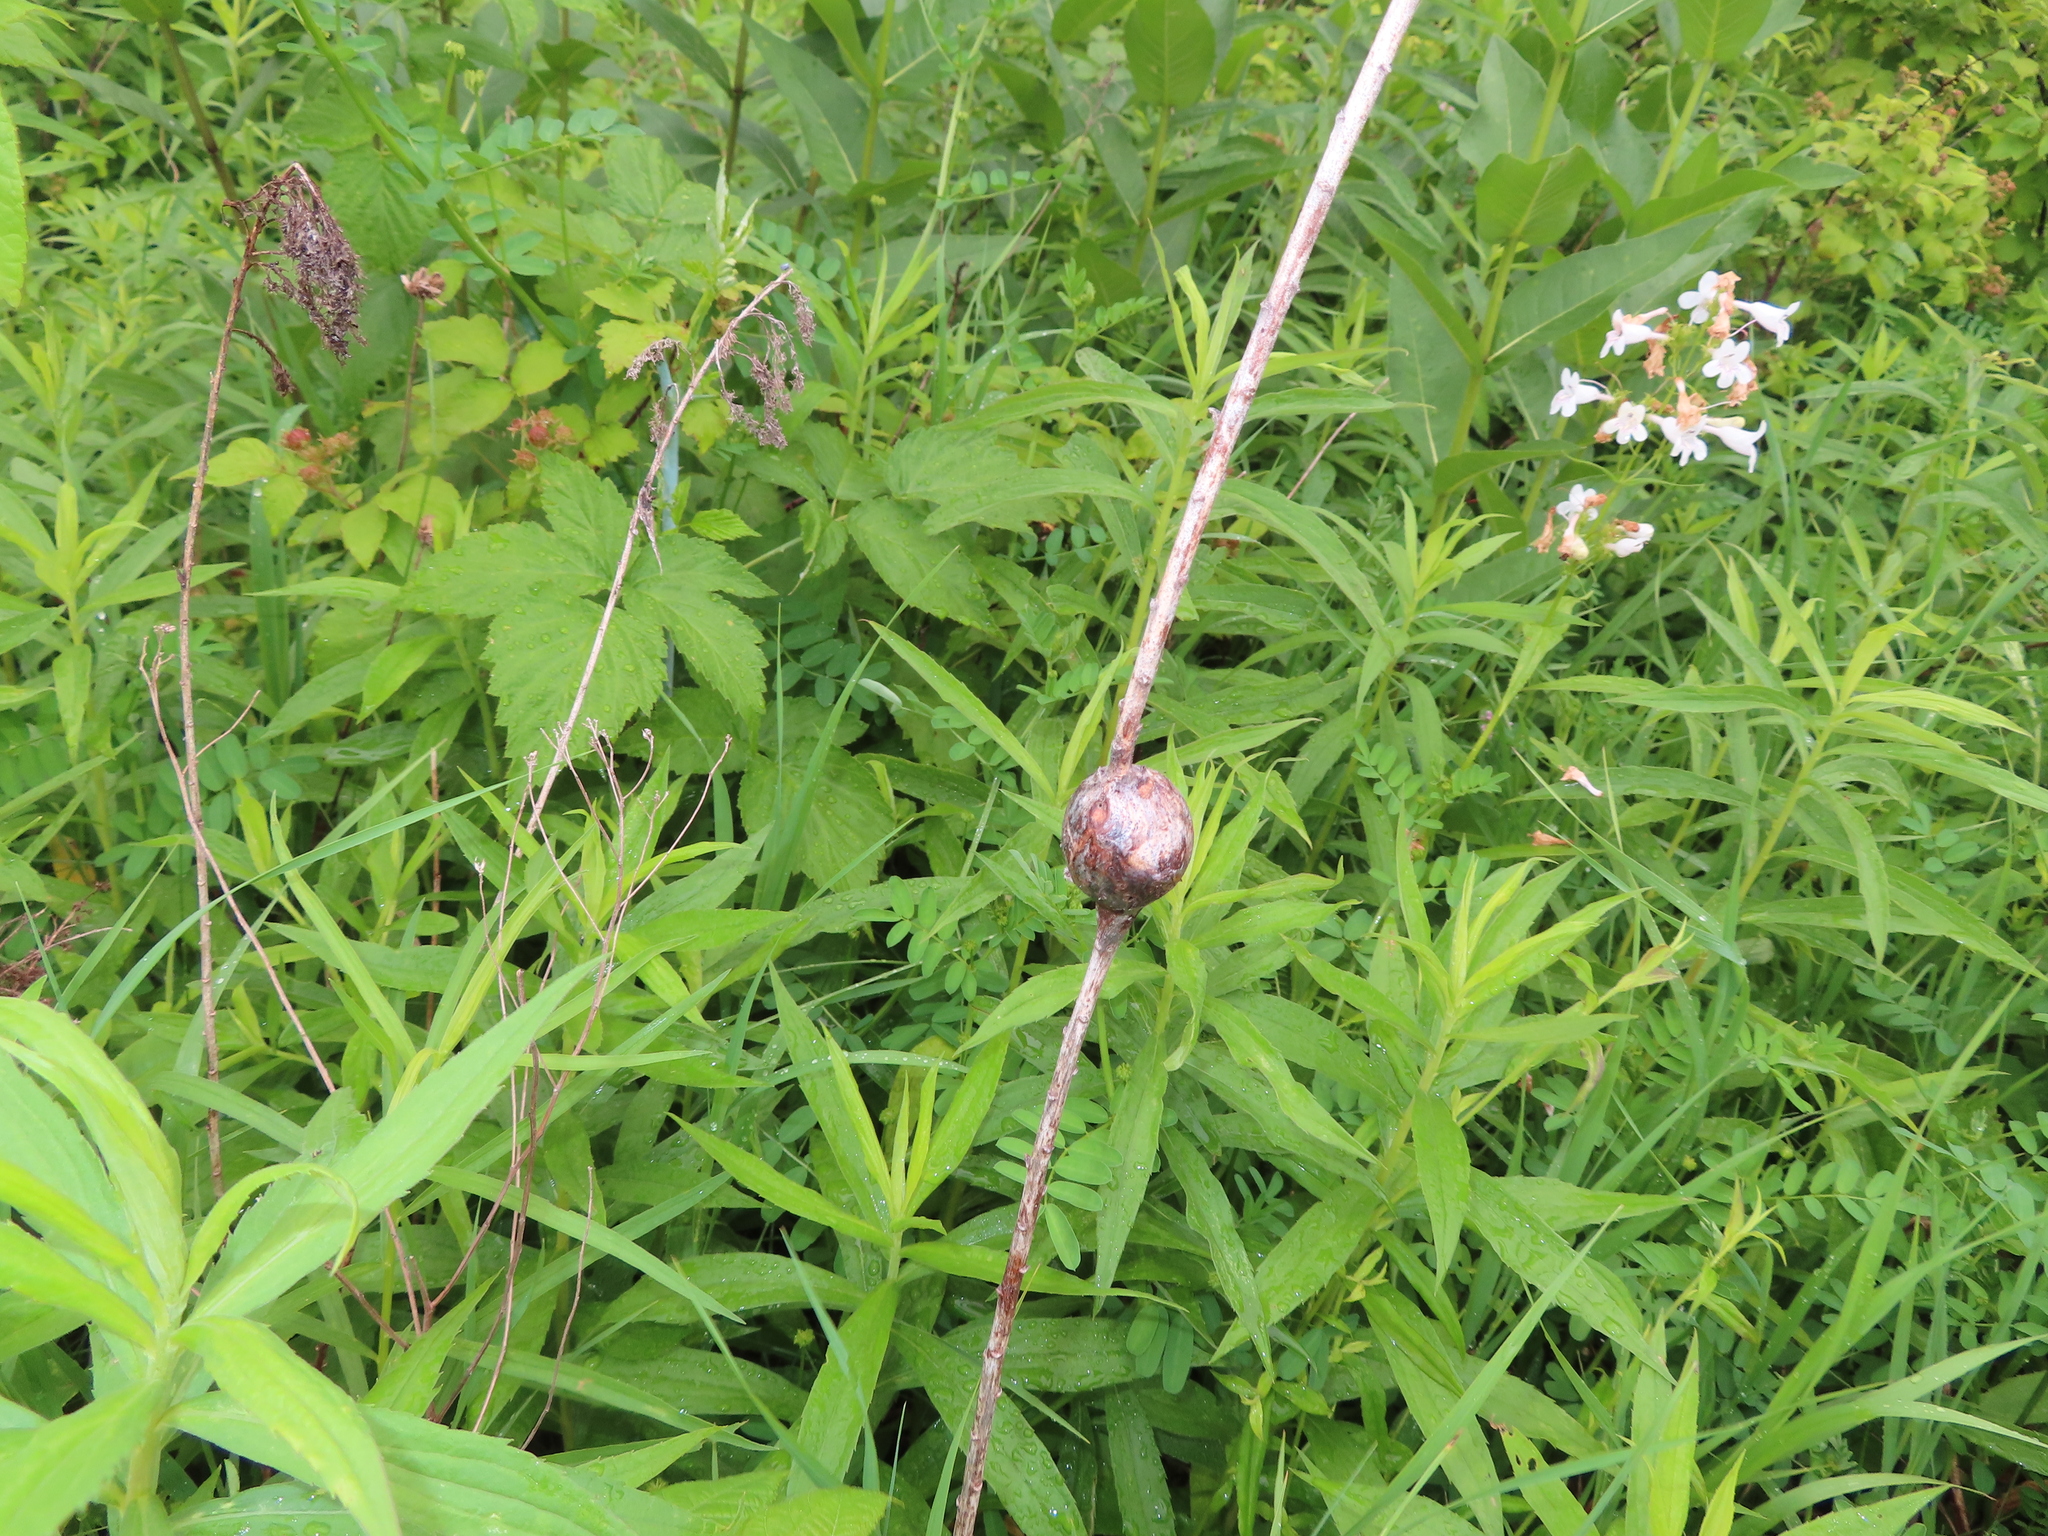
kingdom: Animalia
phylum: Arthropoda
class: Insecta
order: Diptera
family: Tephritidae
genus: Eurosta
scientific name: Eurosta solidaginis
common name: Goldenrod gall fly
